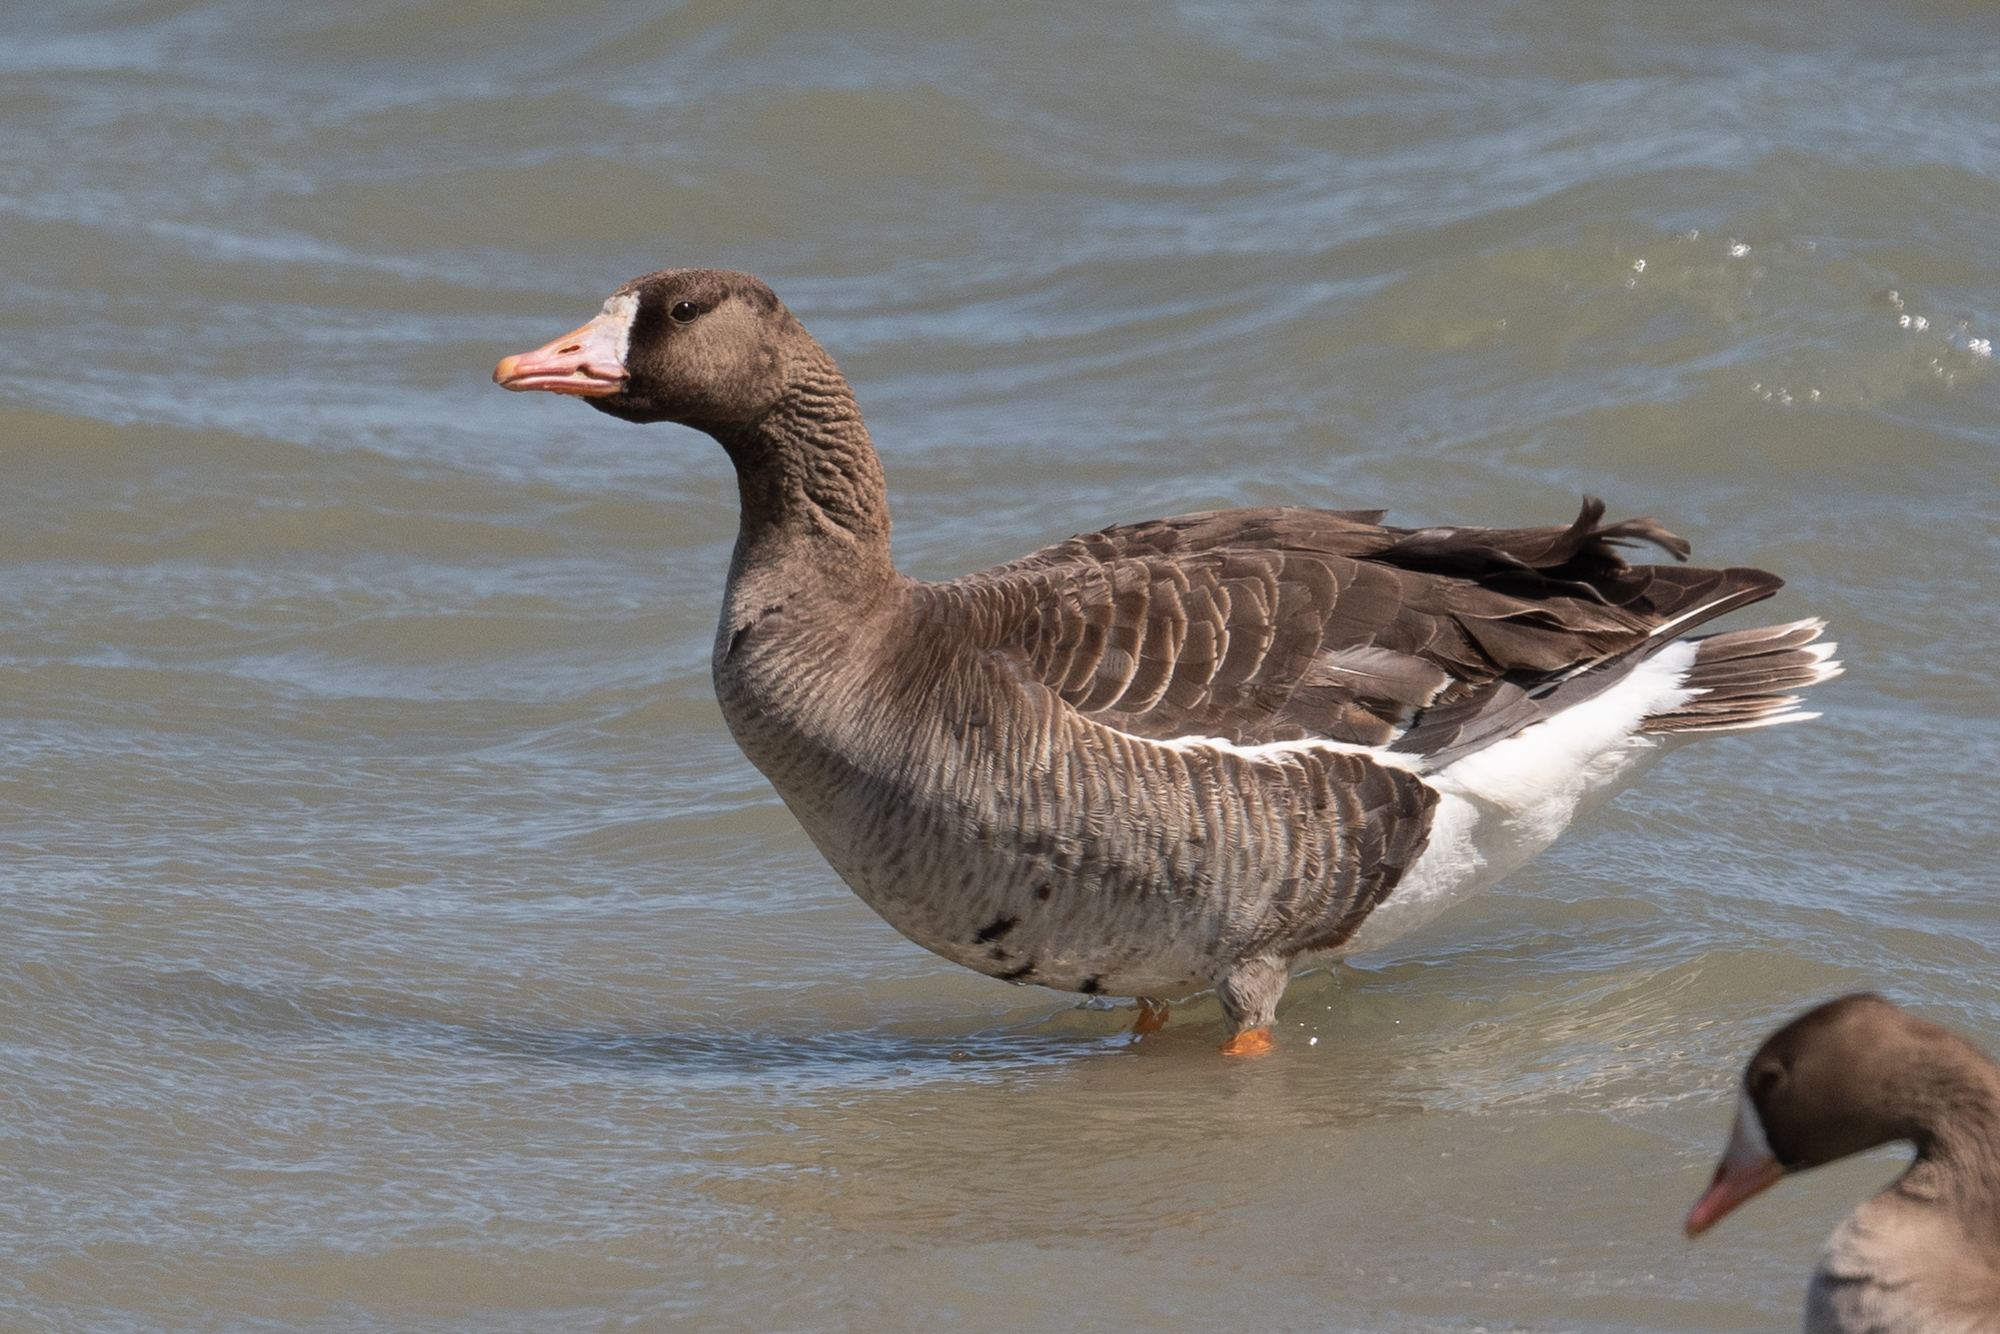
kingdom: Animalia
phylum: Chordata
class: Aves
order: Anseriformes
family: Anatidae
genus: Anser
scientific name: Anser albifrons
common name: Greater white-fronted goose
